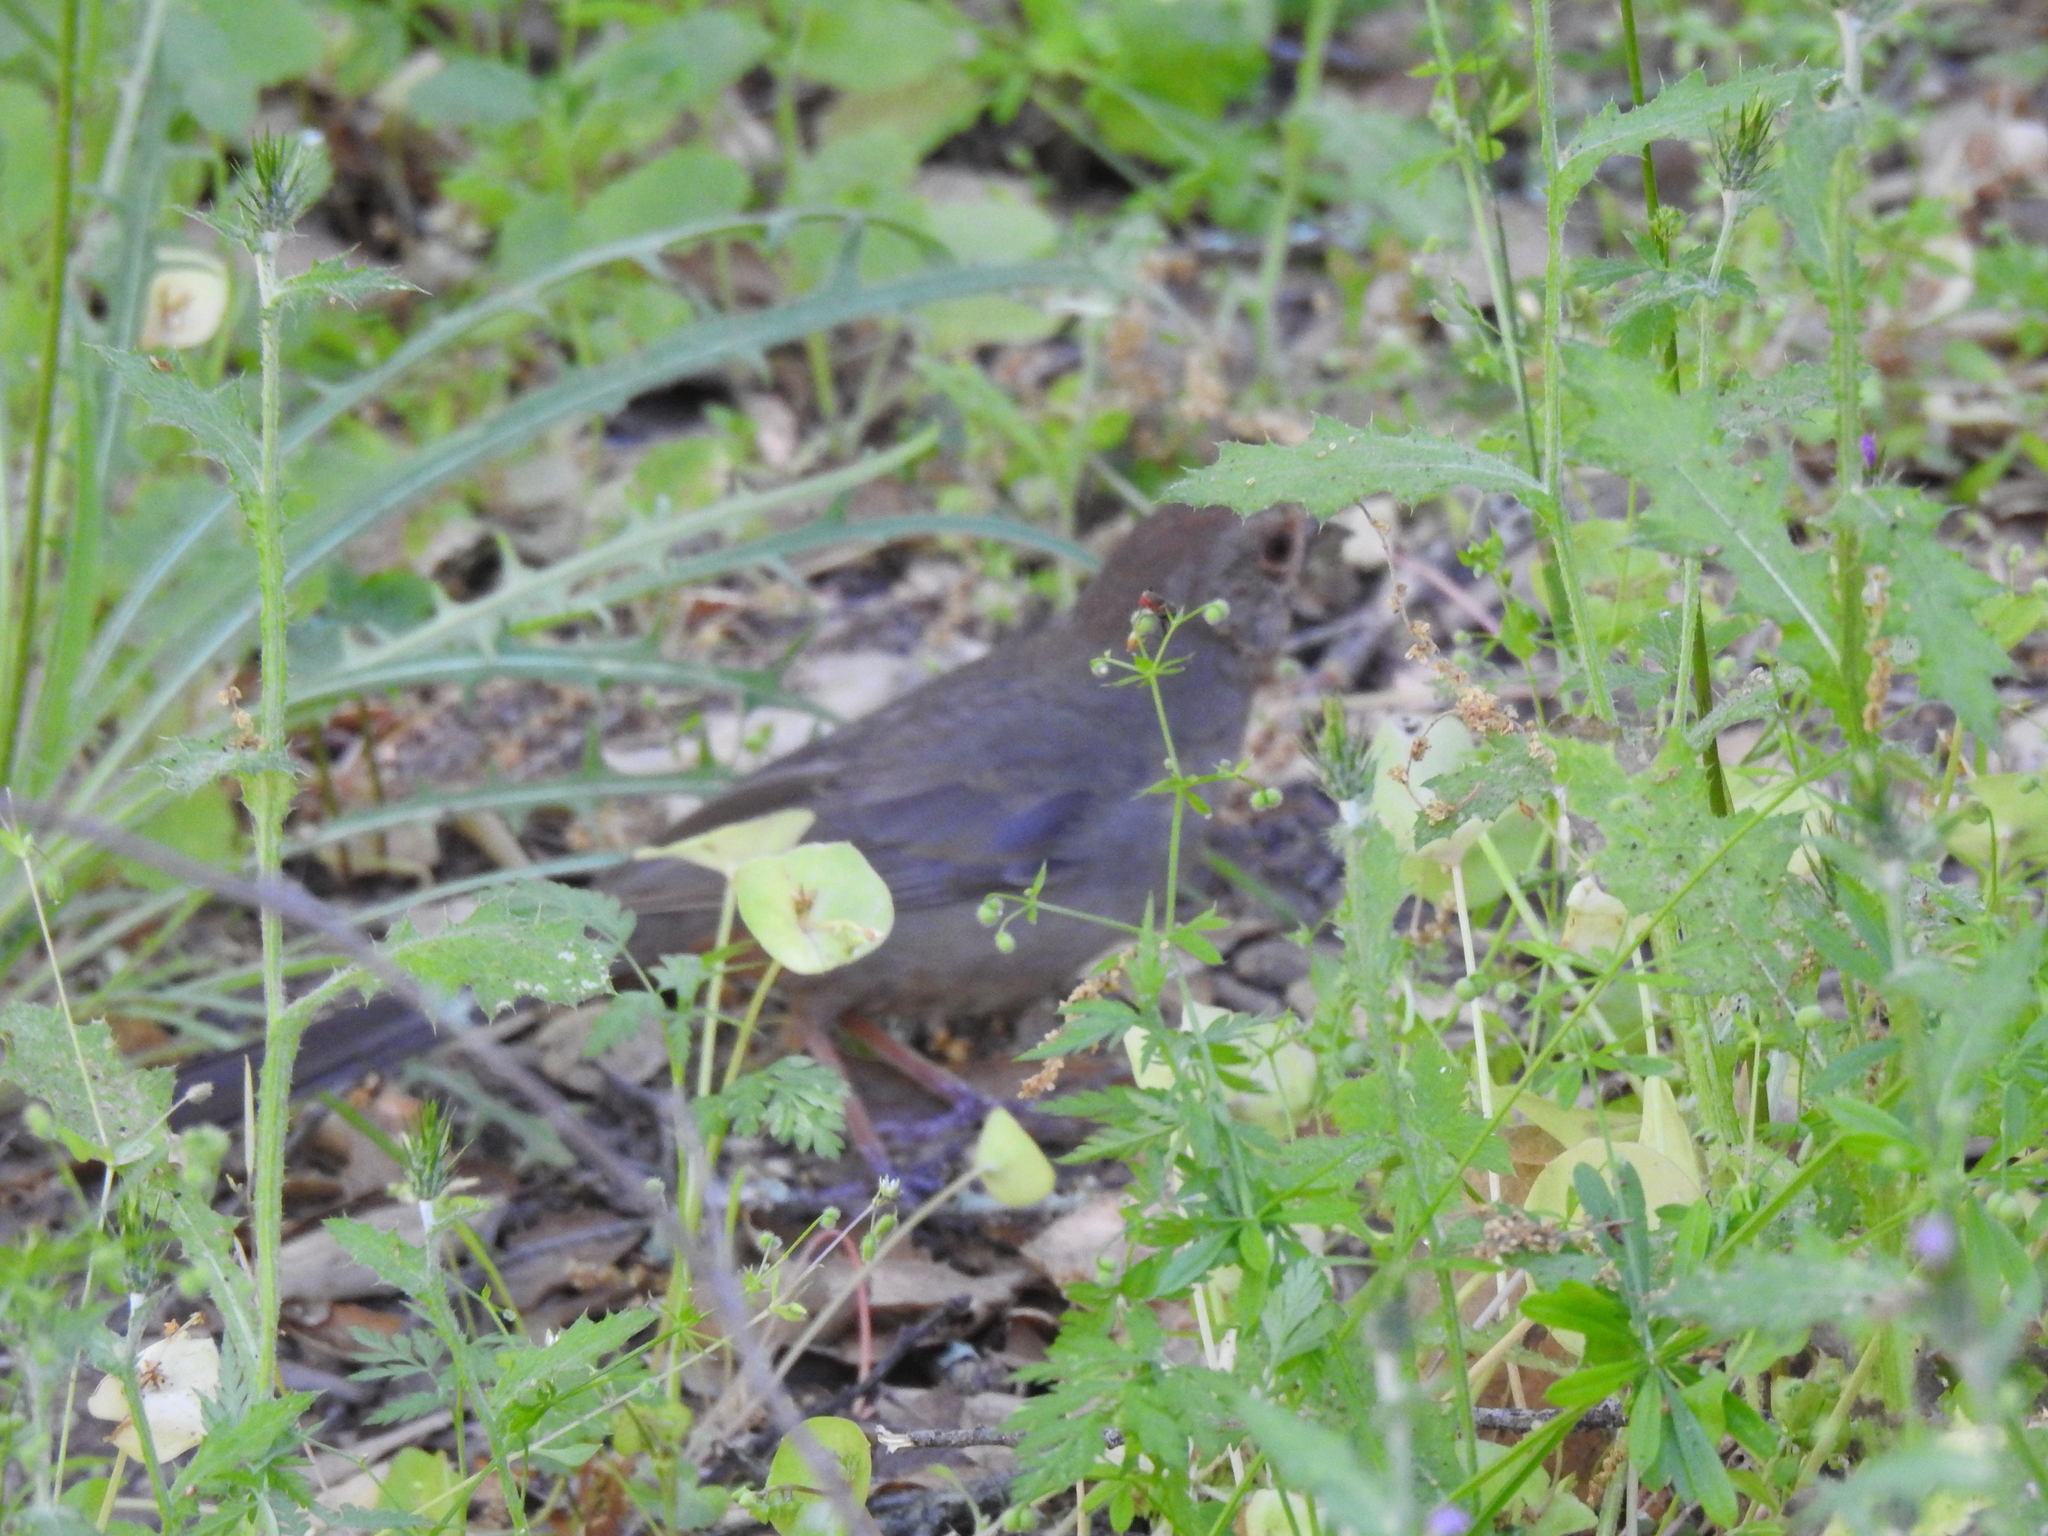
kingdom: Animalia
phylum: Chordata
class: Aves
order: Passeriformes
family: Passerellidae
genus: Melozone
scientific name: Melozone crissalis
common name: California towhee
